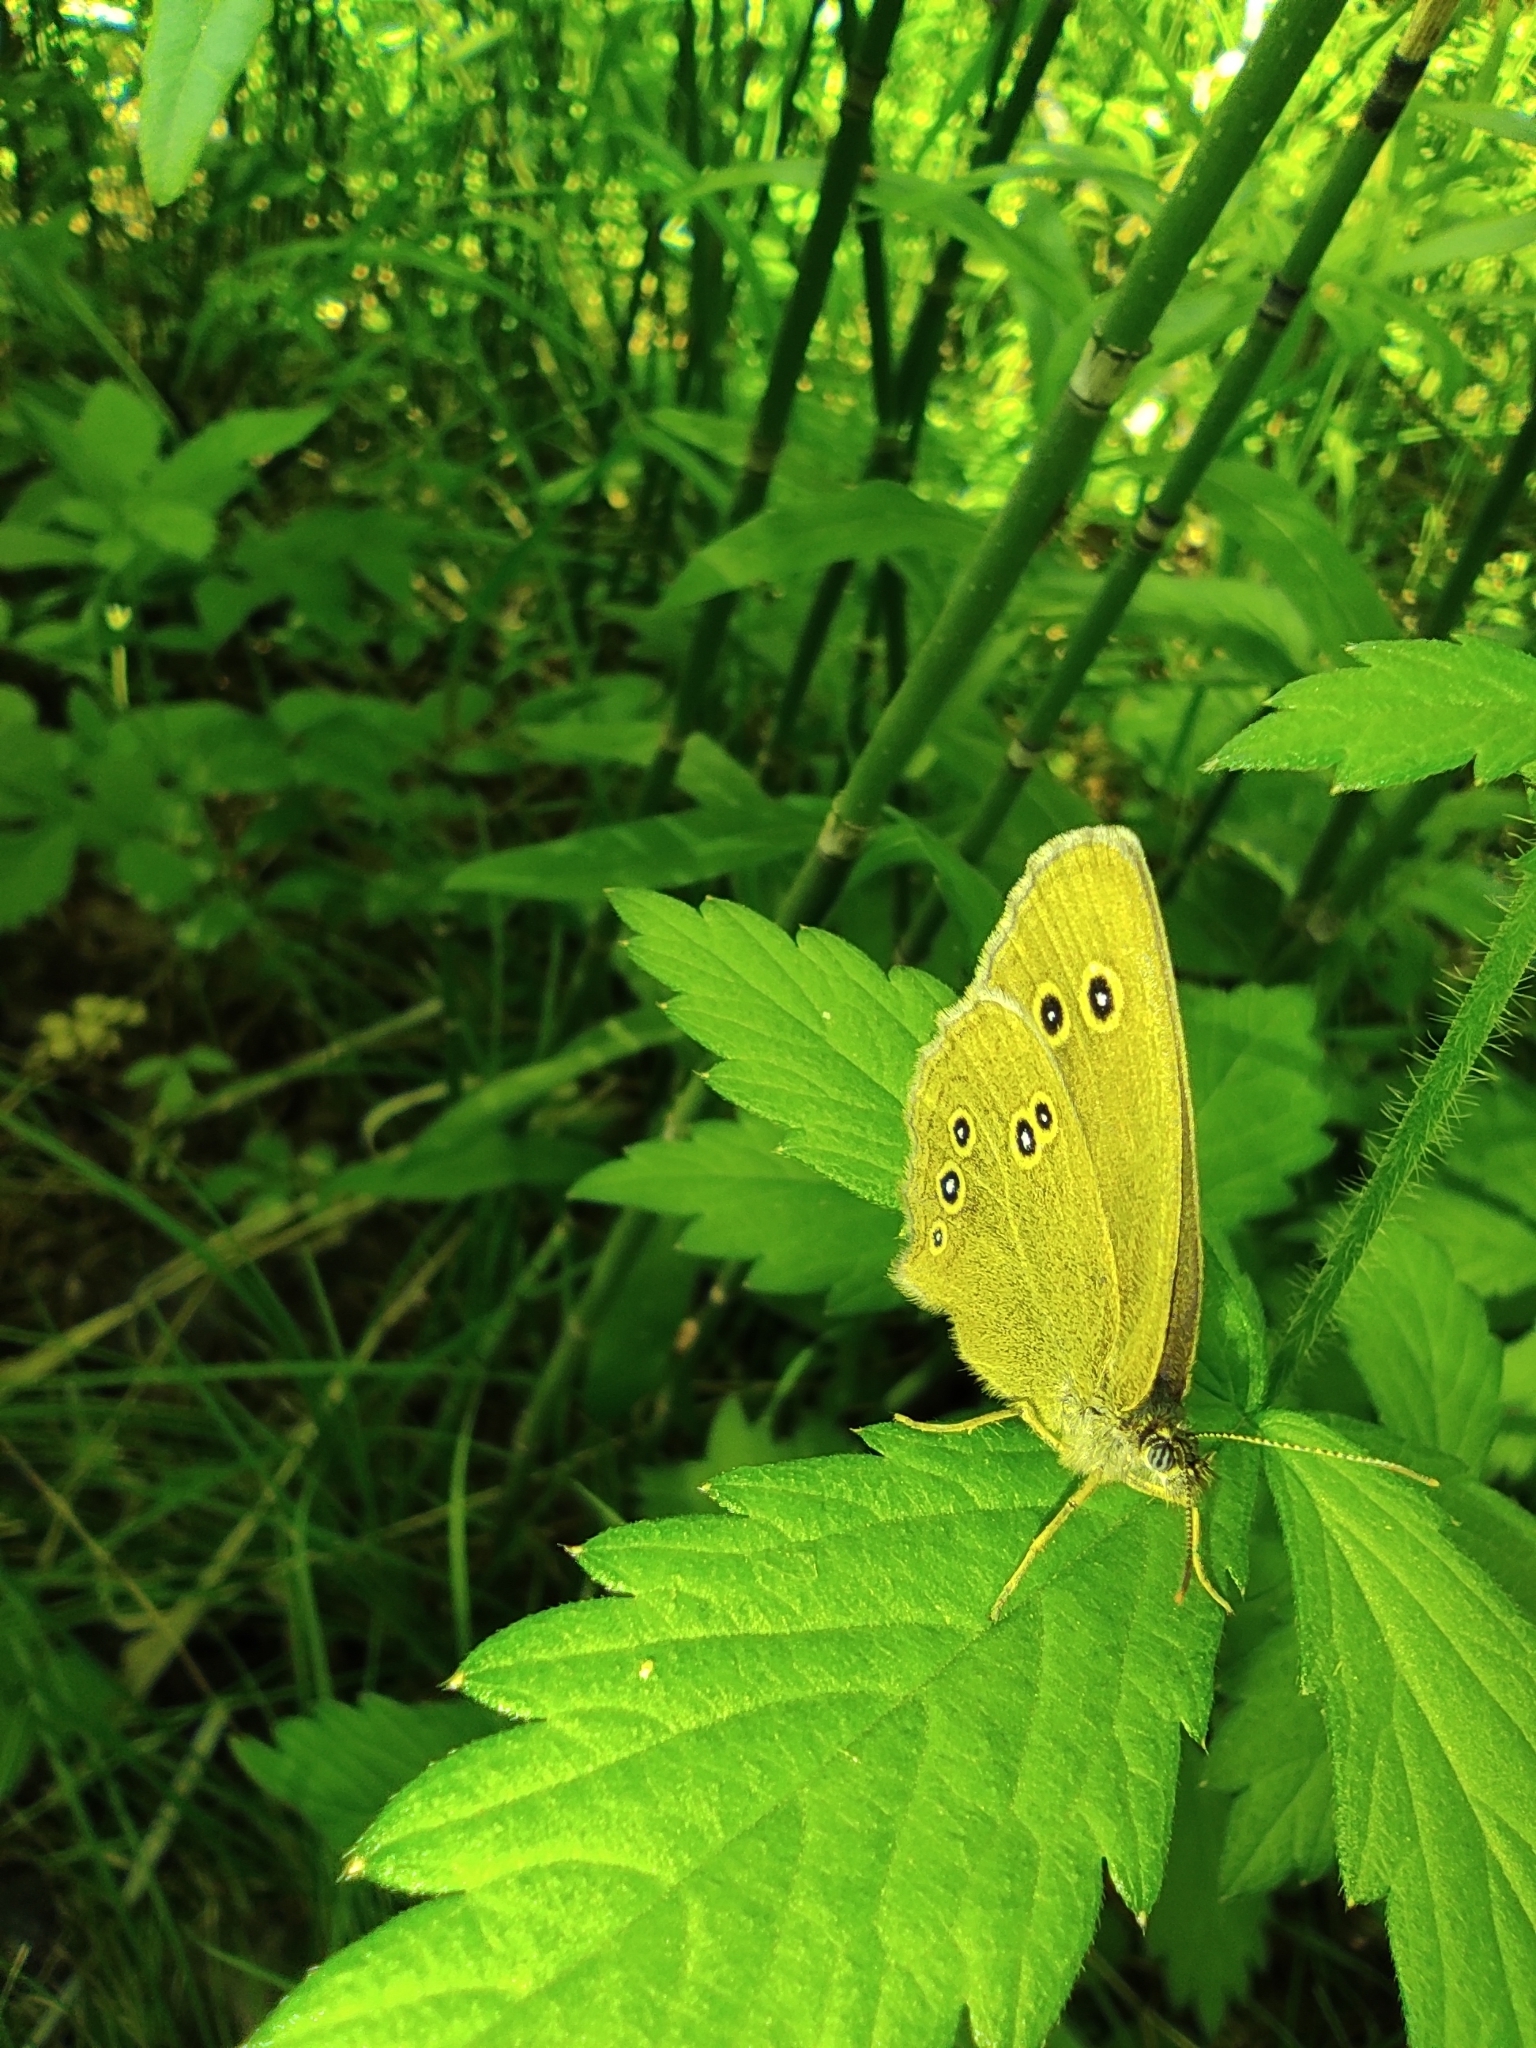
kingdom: Animalia
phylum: Arthropoda
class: Insecta
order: Lepidoptera
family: Nymphalidae
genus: Aphantopus
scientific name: Aphantopus hyperantus
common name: Ringlet
